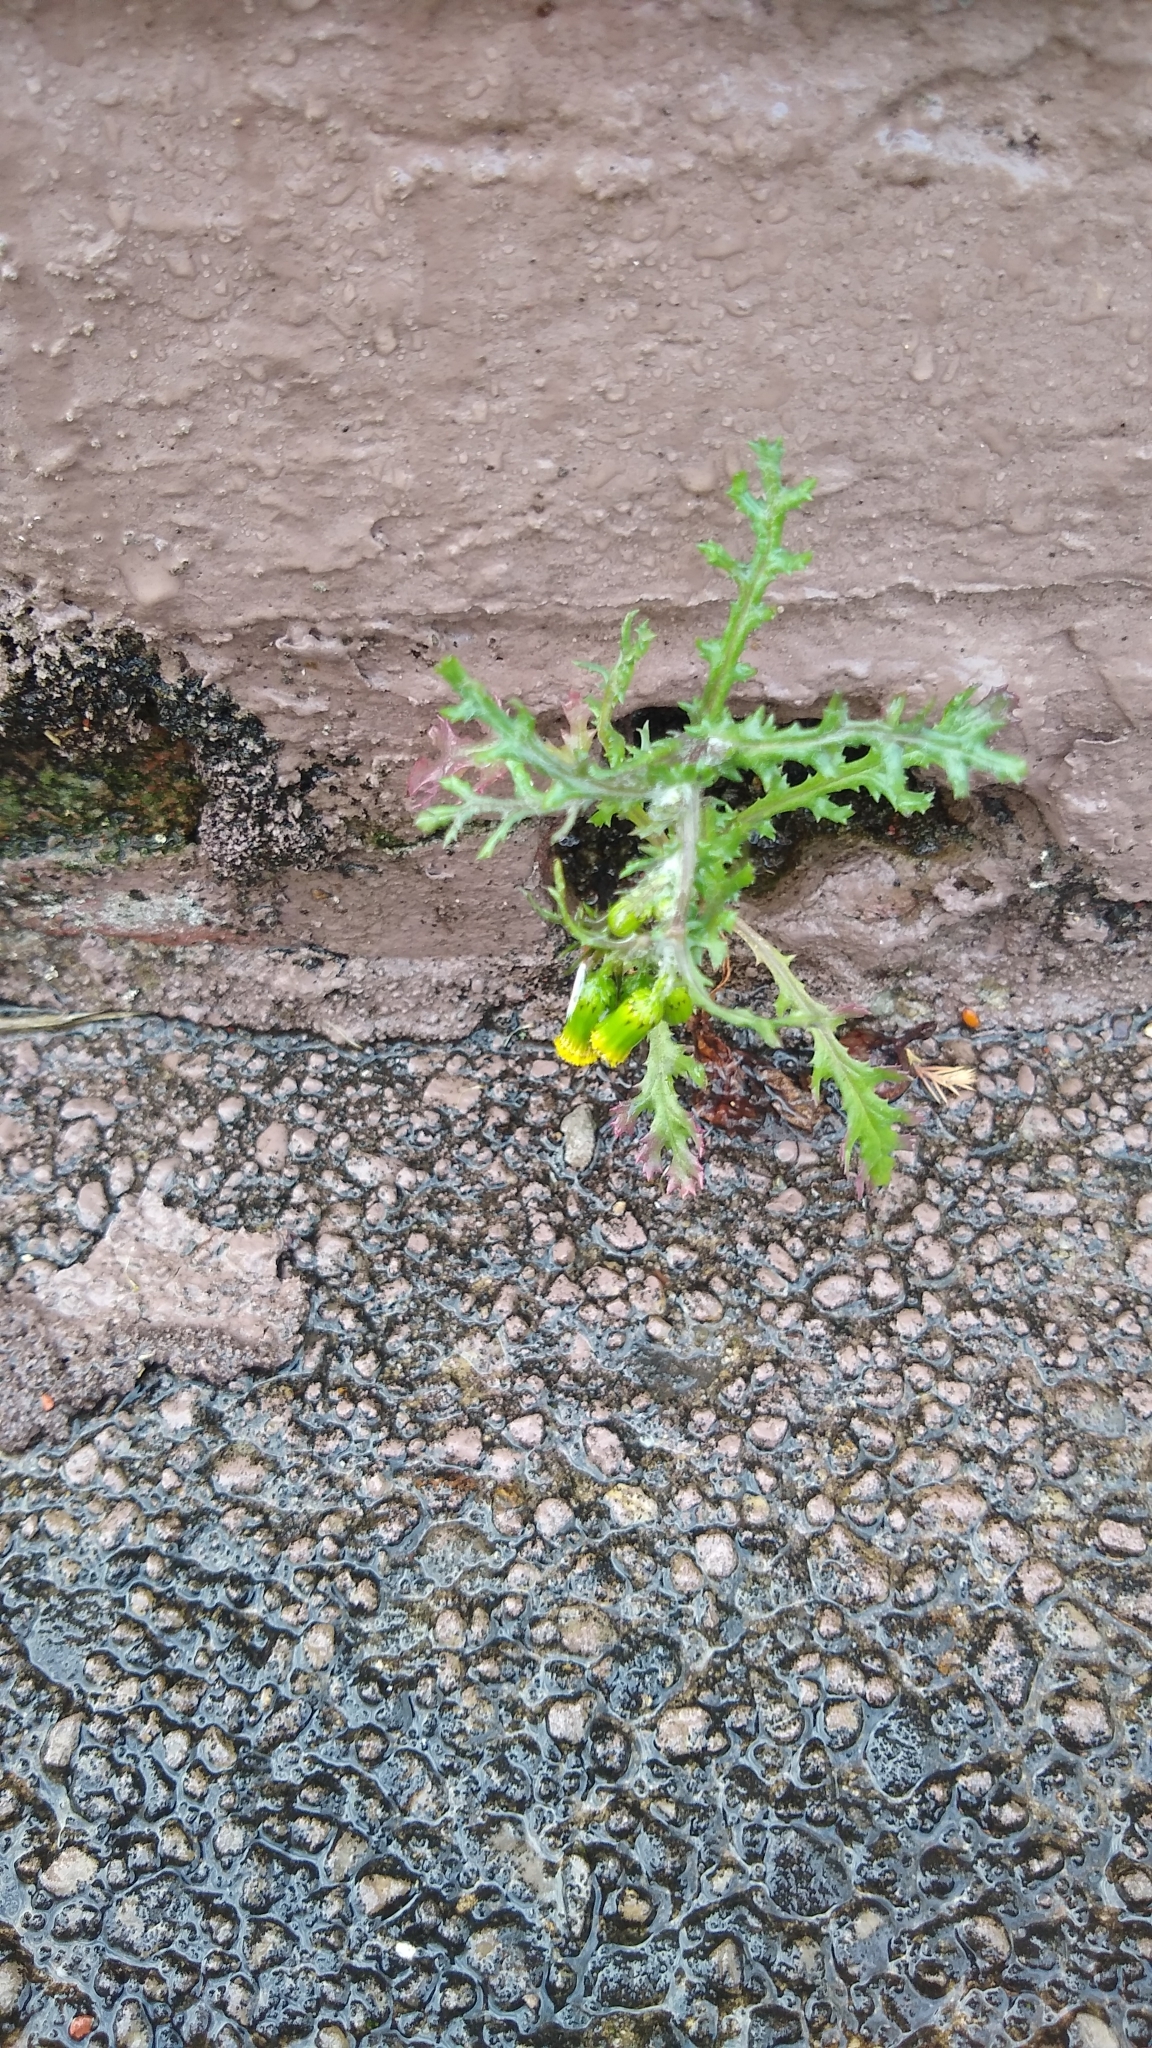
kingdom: Plantae
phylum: Tracheophyta
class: Magnoliopsida
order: Asterales
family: Asteraceae
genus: Senecio
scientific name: Senecio vulgaris
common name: Old-man-in-the-spring
